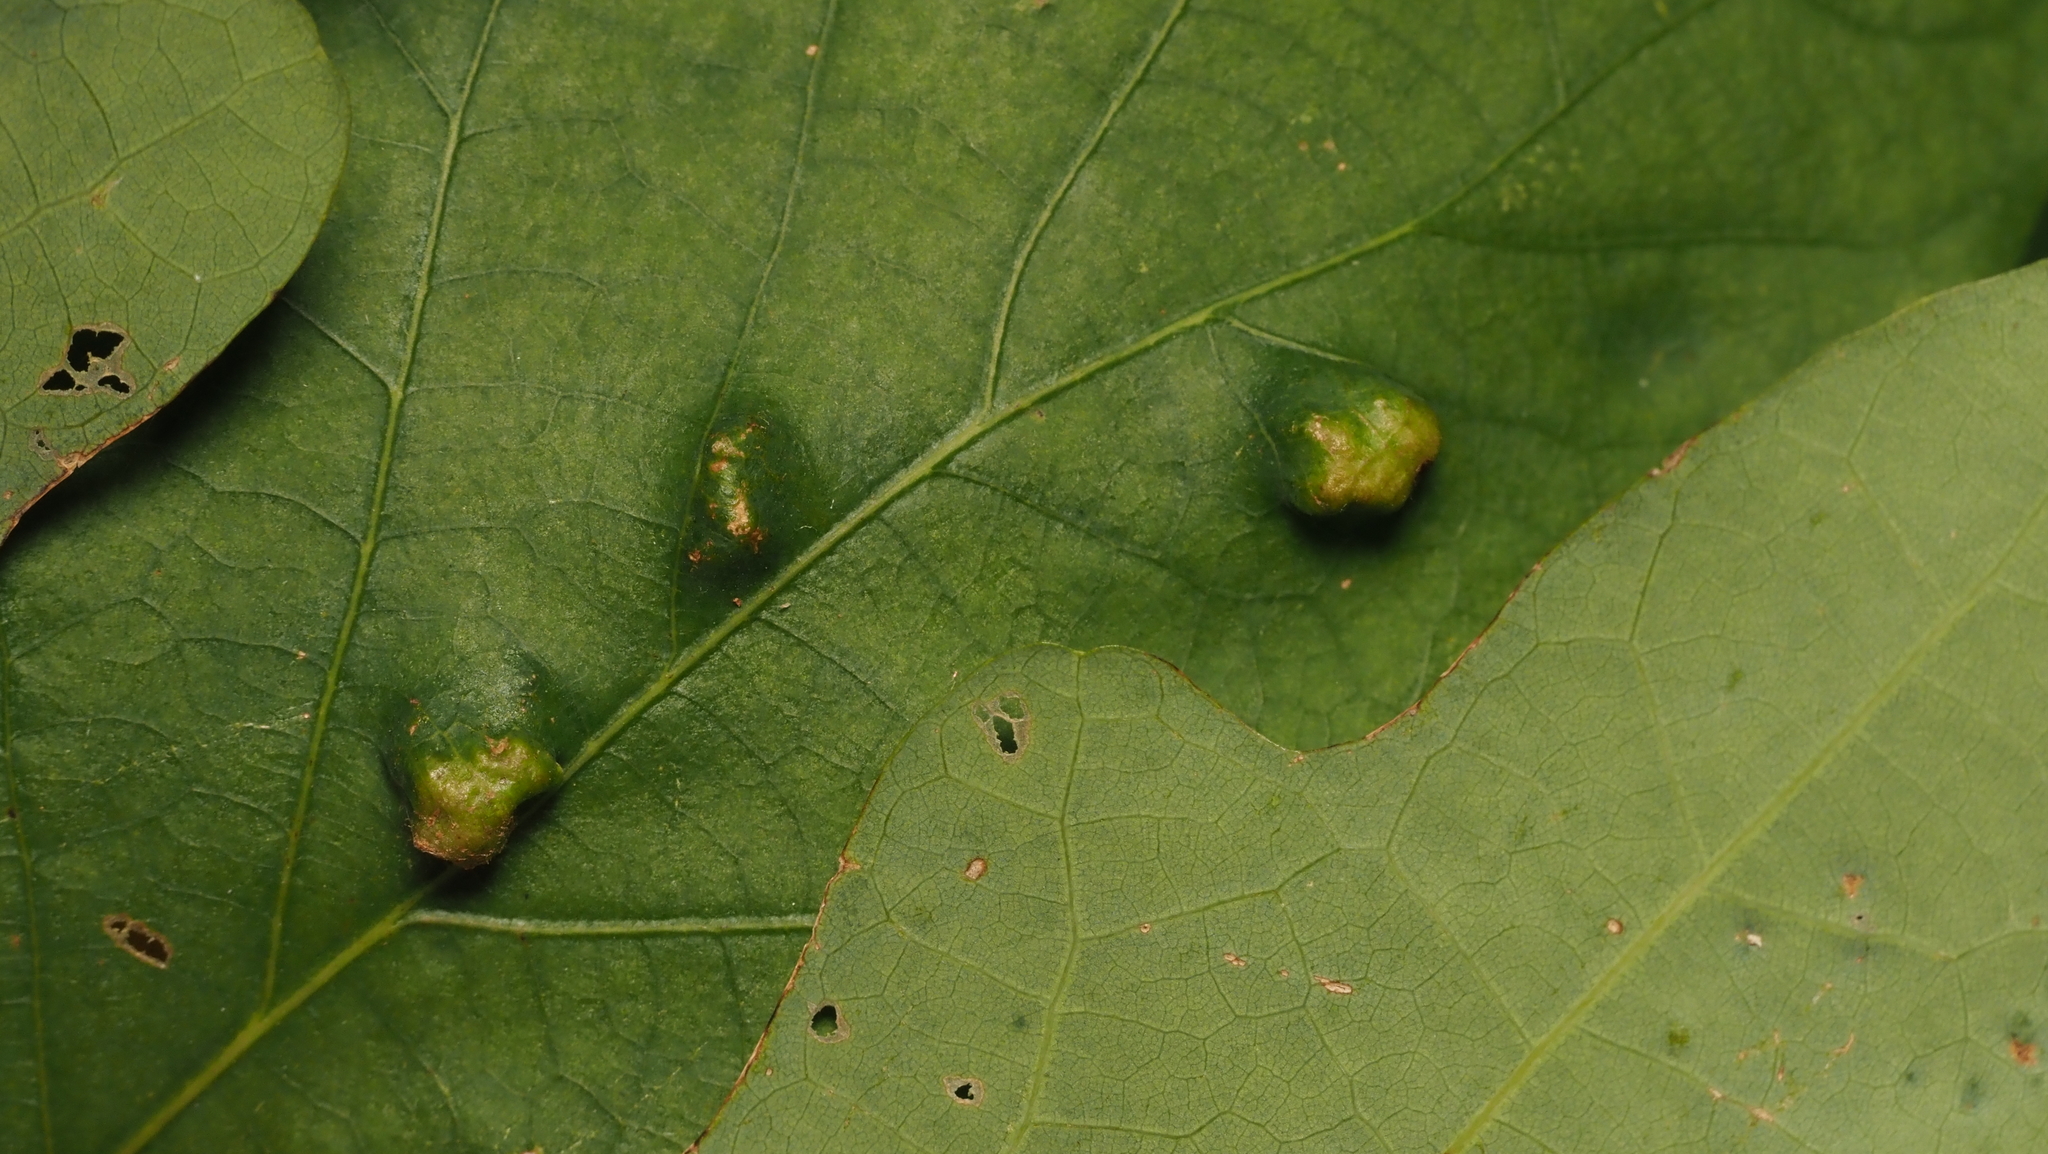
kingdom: Animalia
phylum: Arthropoda
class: Arachnida
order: Trombidiformes
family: Eriophyidae
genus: Aceria
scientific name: Aceria
